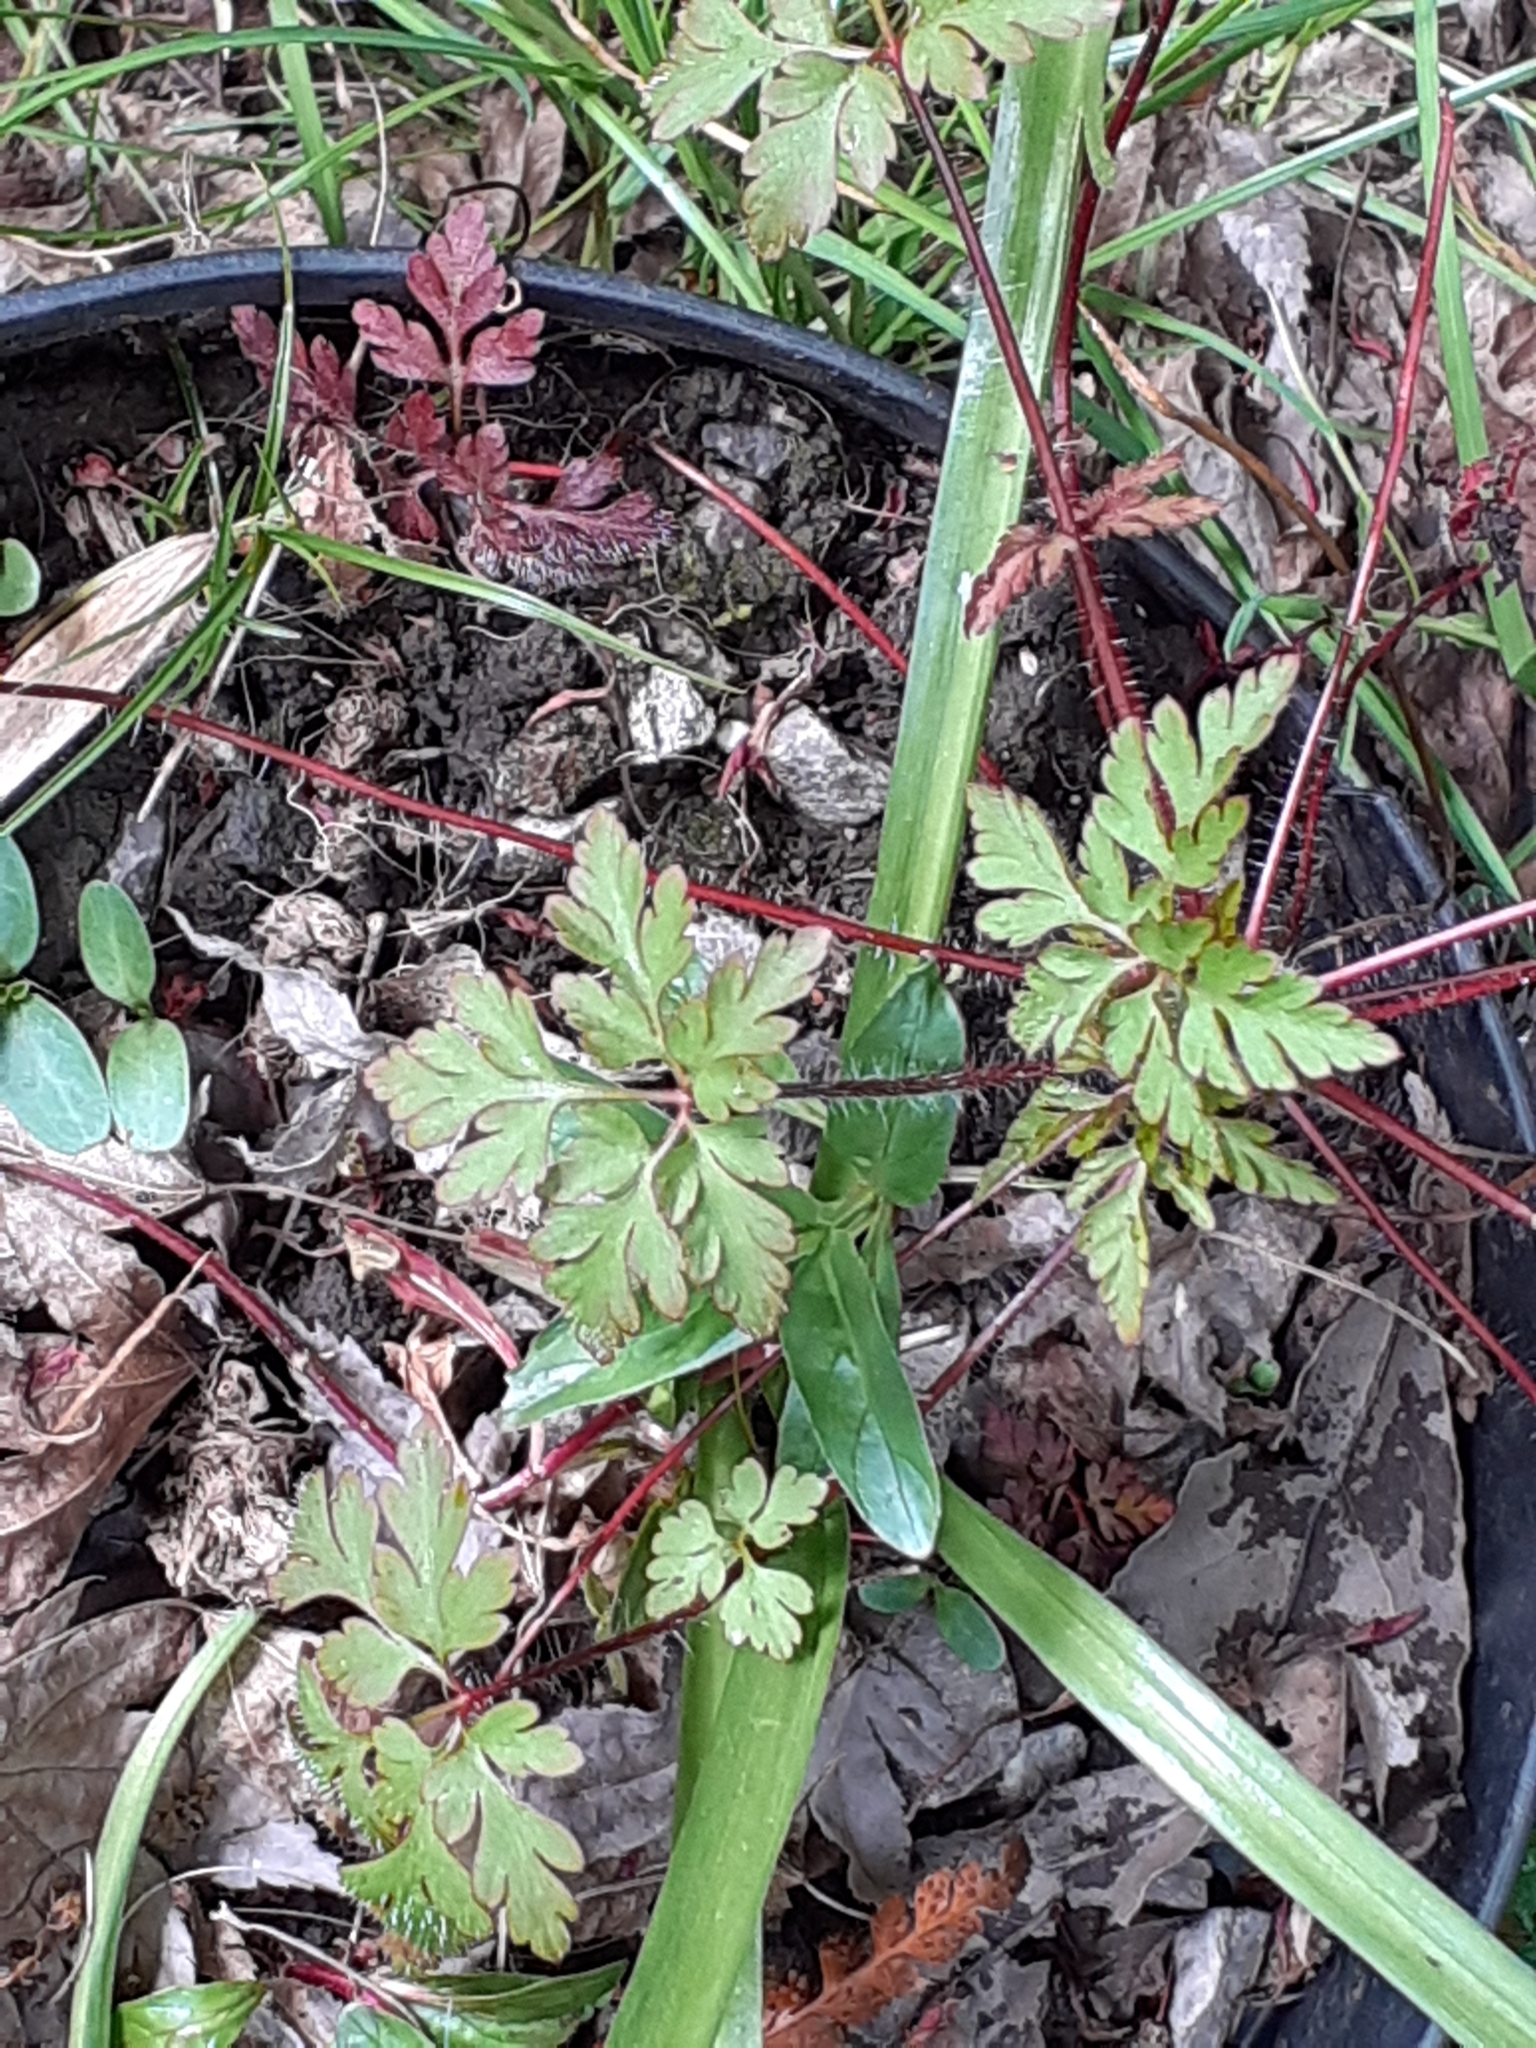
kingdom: Plantae
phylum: Tracheophyta
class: Magnoliopsida
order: Geraniales
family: Geraniaceae
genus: Geranium
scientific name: Geranium robertianum
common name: Herb-robert
